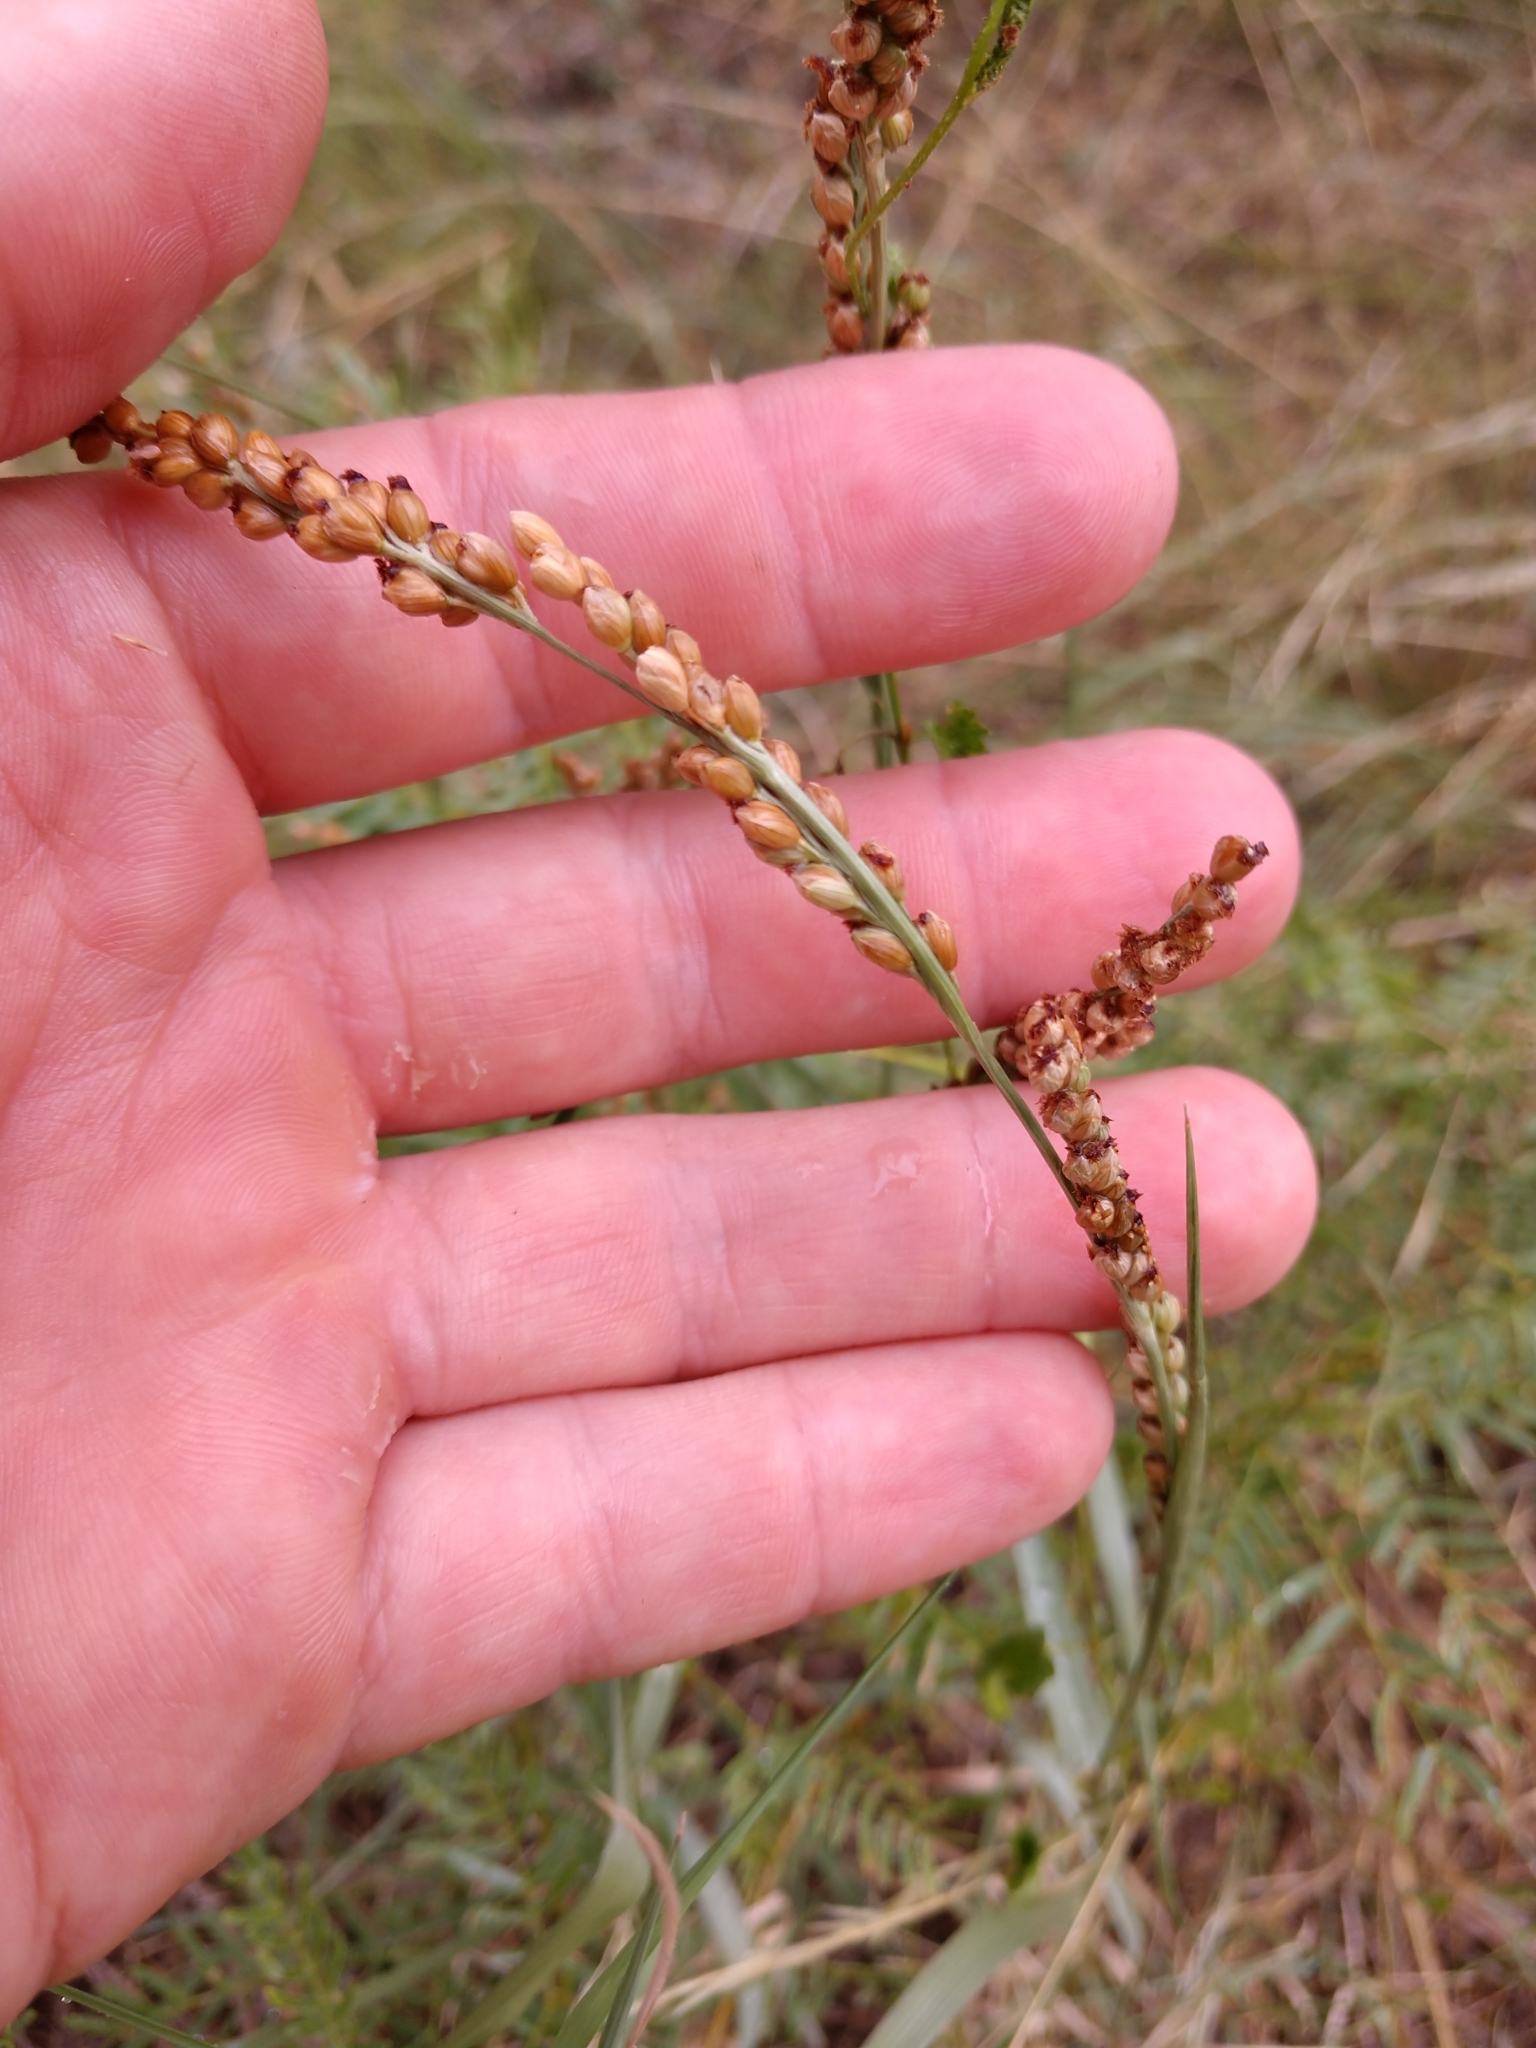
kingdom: Plantae
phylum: Tracheophyta
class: Liliopsida
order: Poales
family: Poaceae
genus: Hopia
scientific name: Hopia obtusa
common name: Vine-mesquite
